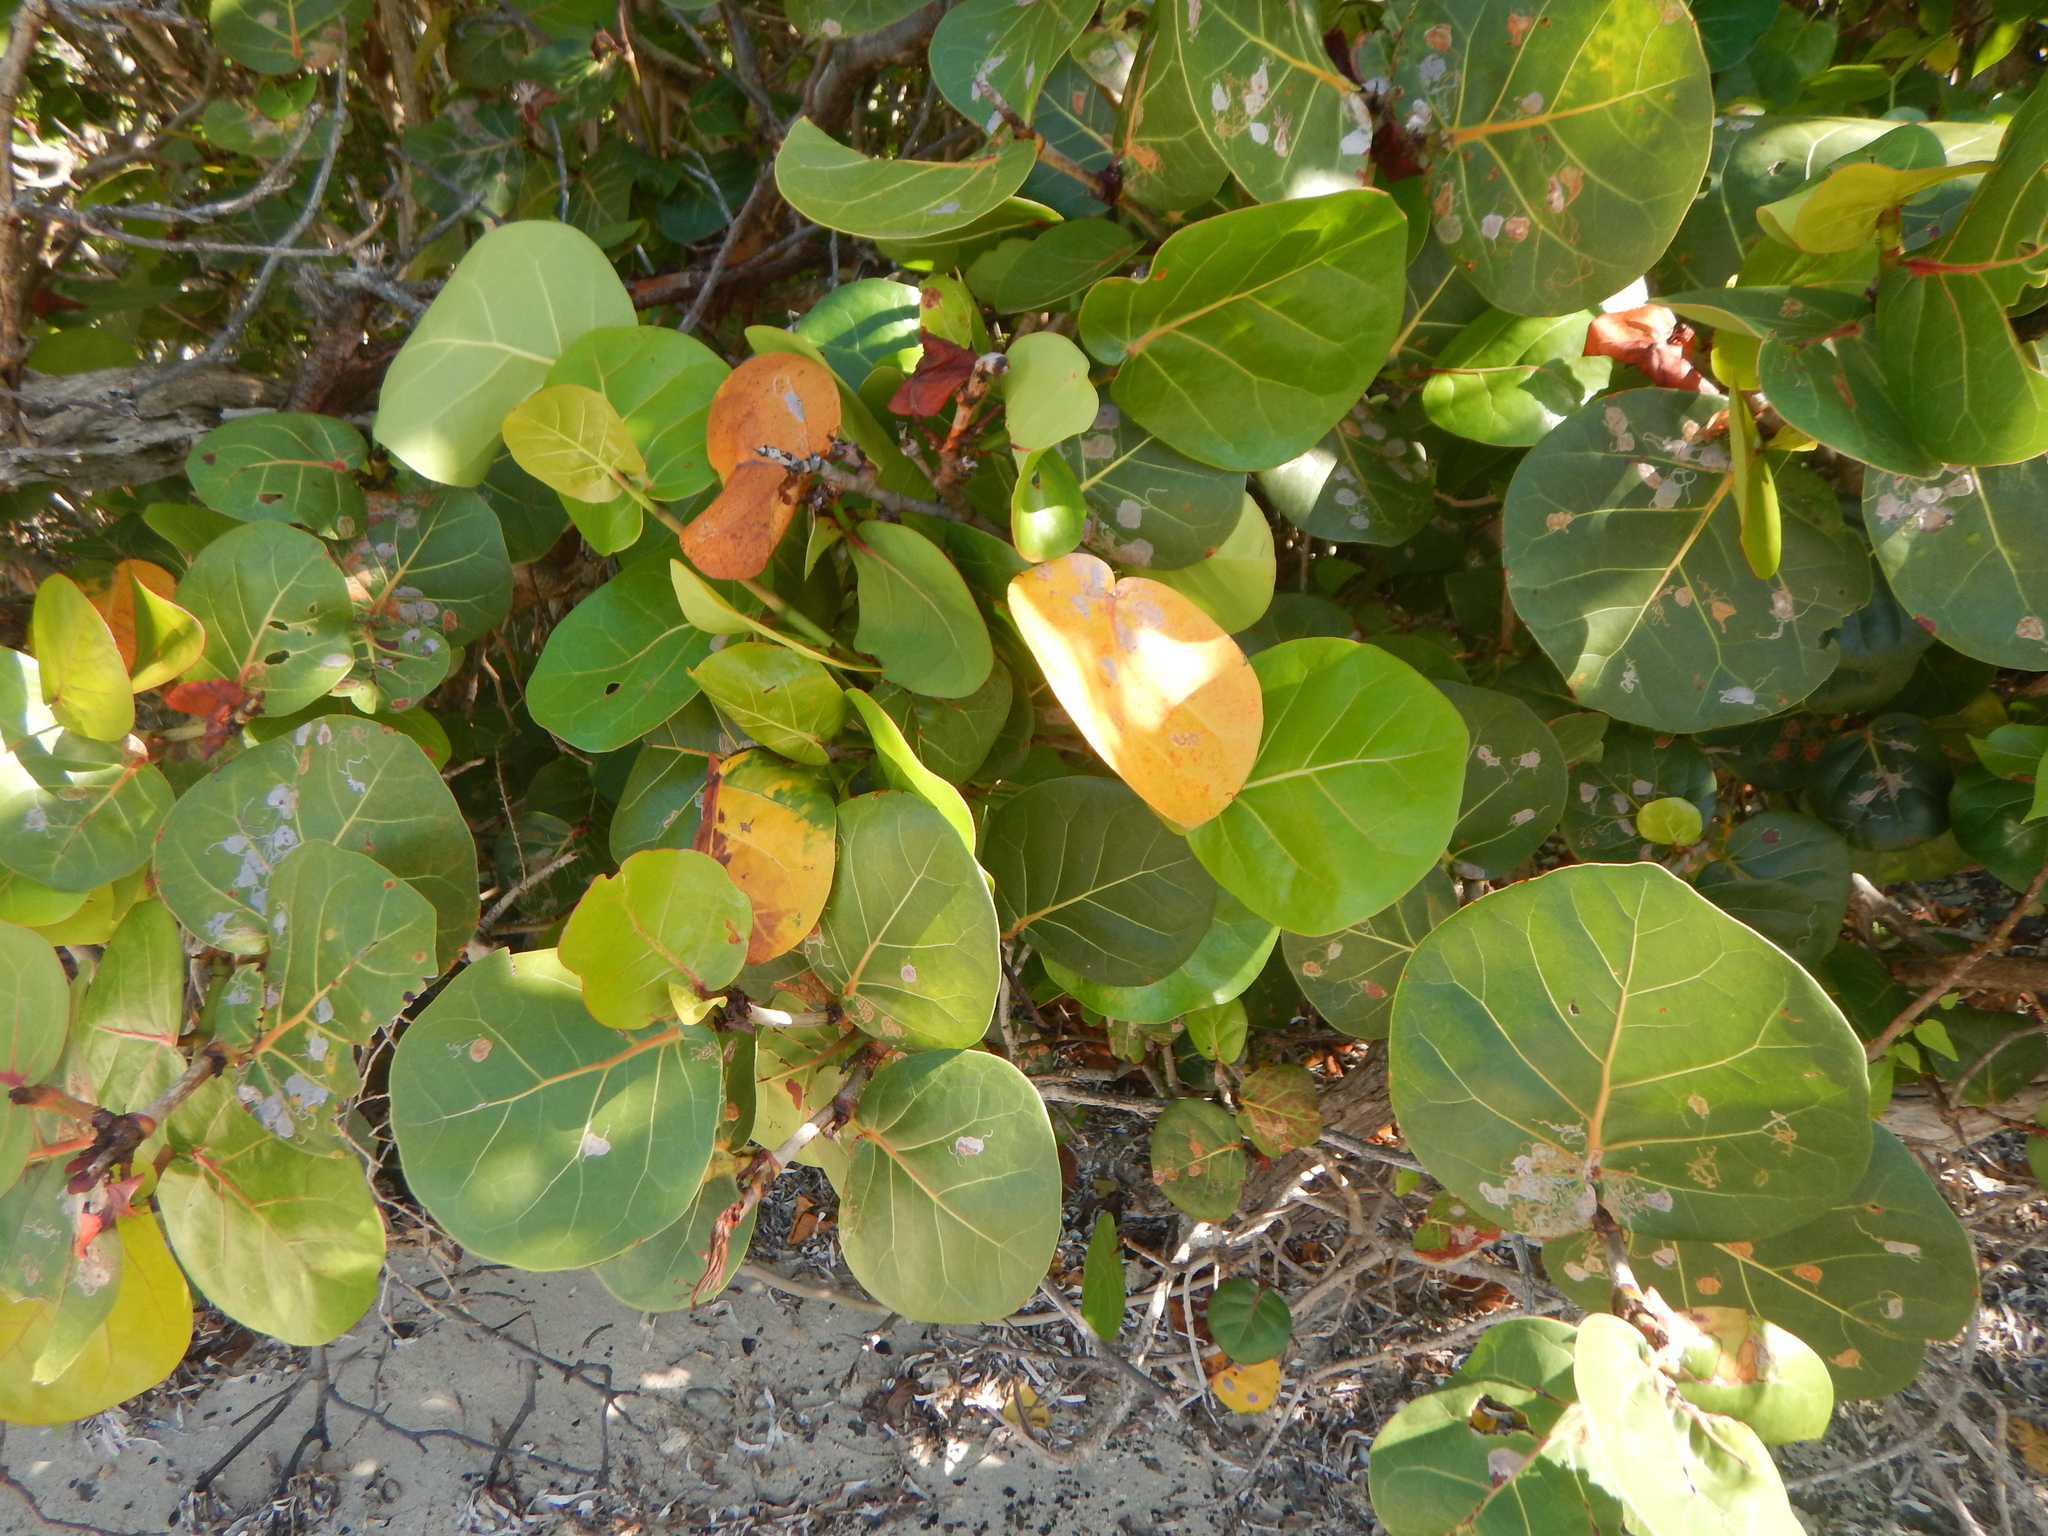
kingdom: Plantae
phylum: Tracheophyta
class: Magnoliopsida
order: Caryophyllales
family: Polygonaceae
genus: Coccoloba
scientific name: Coccoloba uvifera
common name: Seagrape
